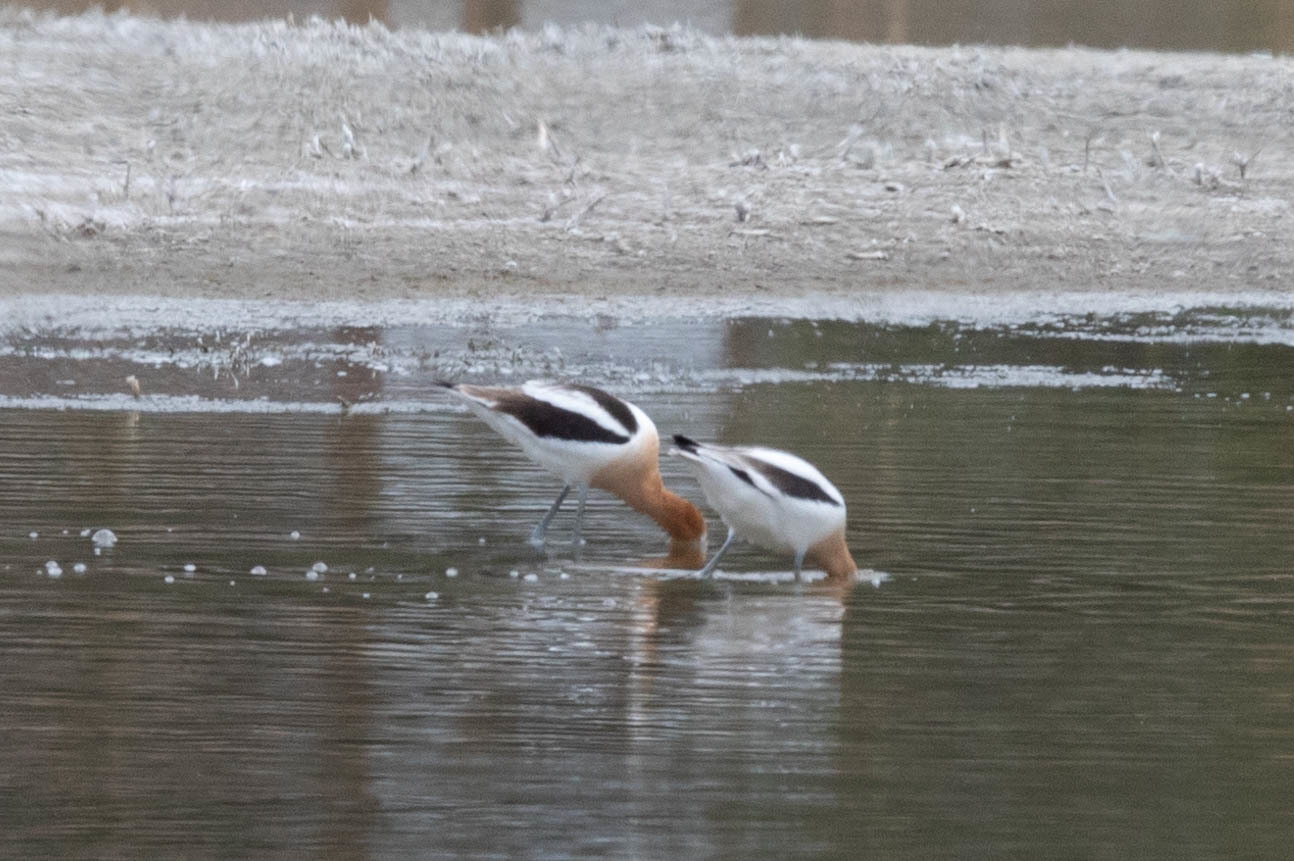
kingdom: Animalia
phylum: Chordata
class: Aves
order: Charadriiformes
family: Recurvirostridae
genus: Recurvirostra
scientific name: Recurvirostra americana
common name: American avocet
